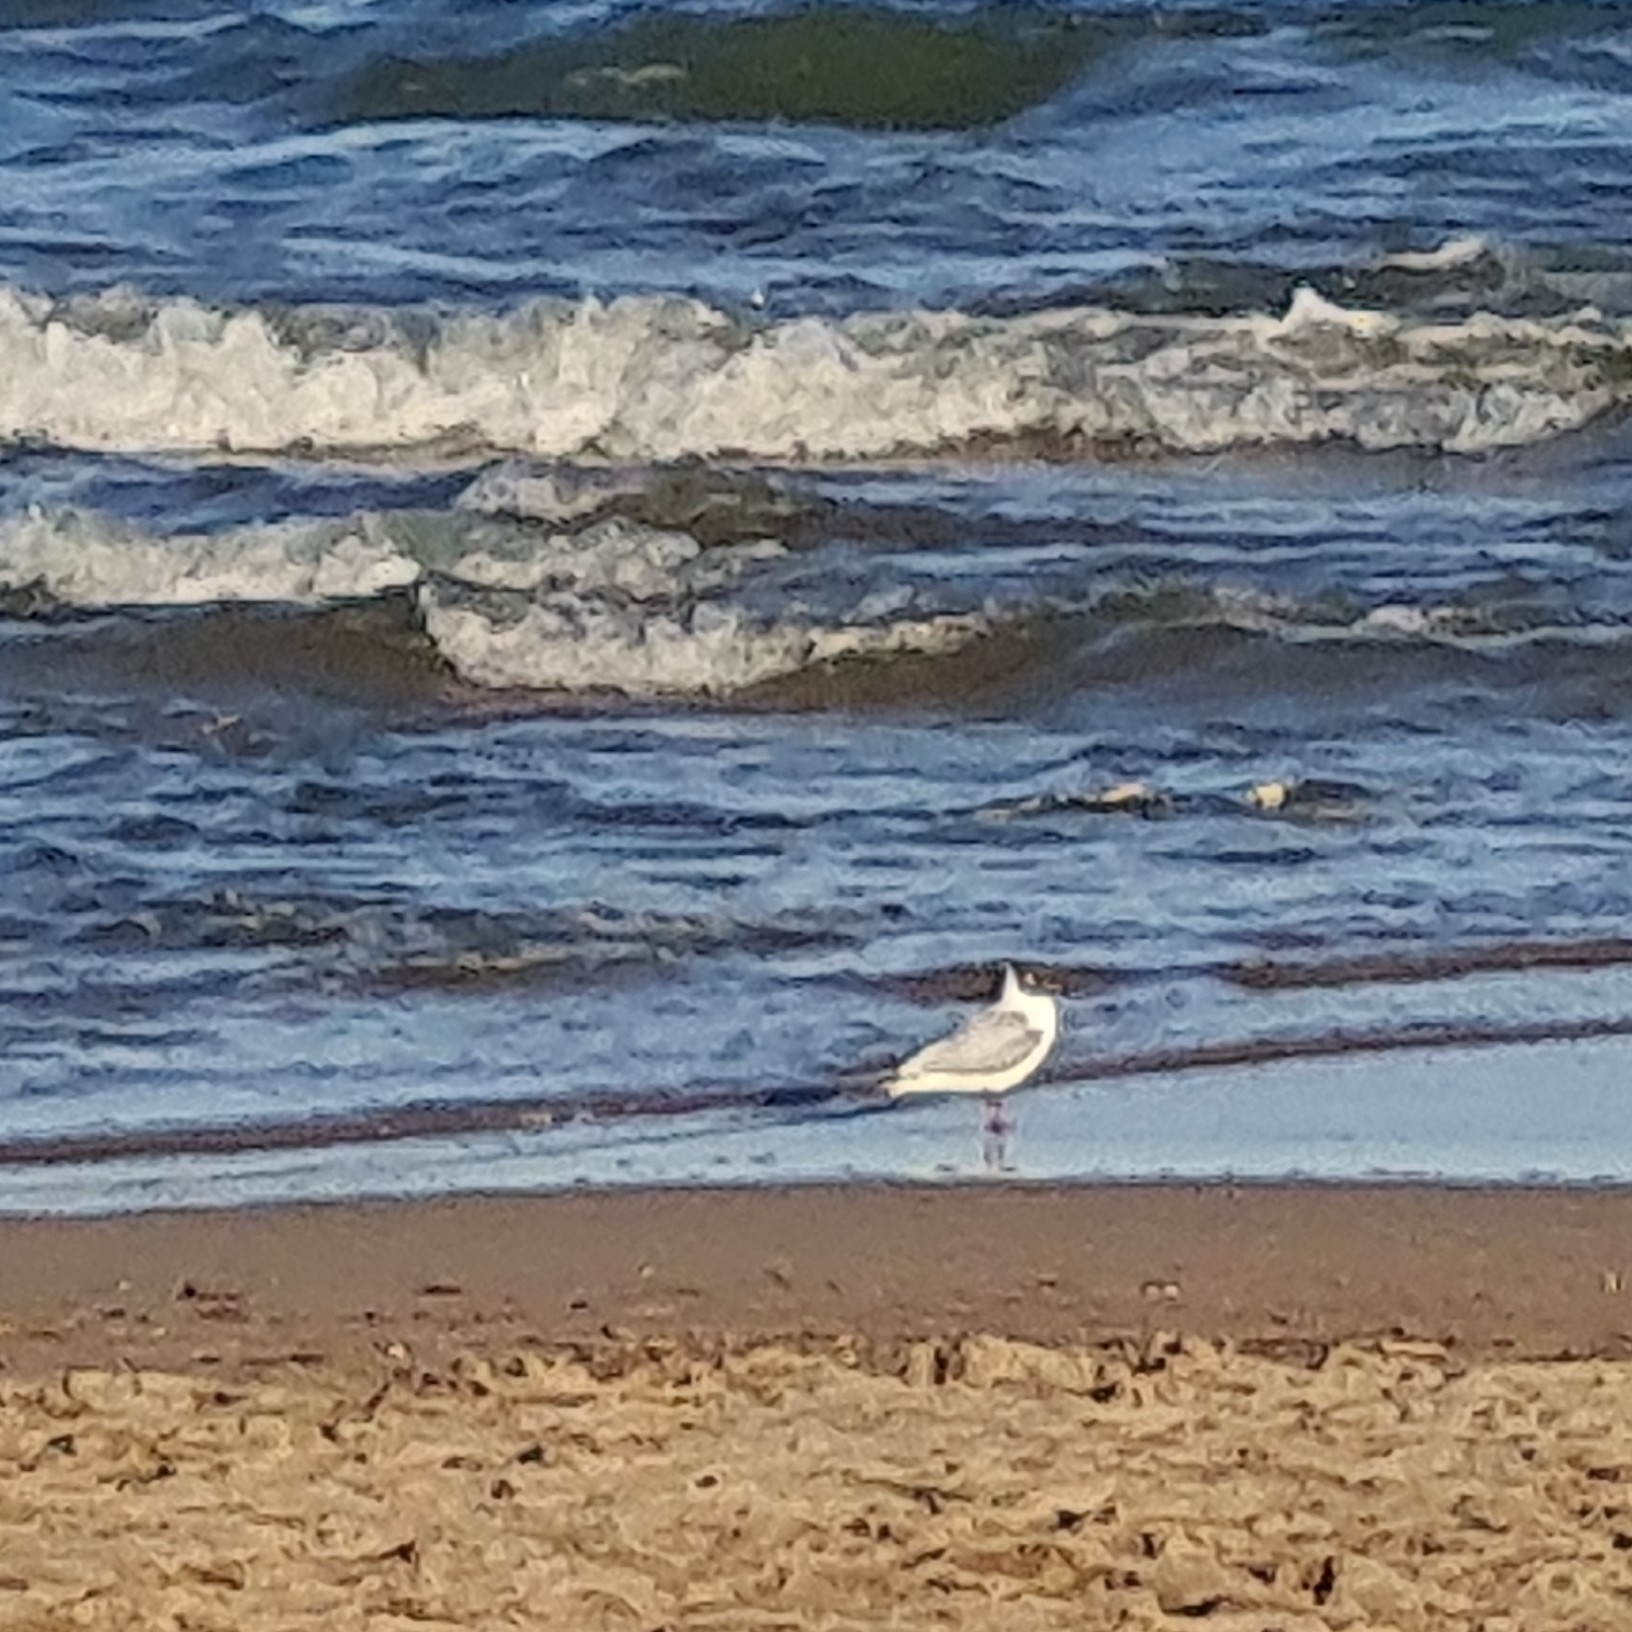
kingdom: Animalia
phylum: Chordata
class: Aves
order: Charadriiformes
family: Laridae
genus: Chroicocephalus
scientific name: Chroicocephalus ridibundus
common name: Black-headed gull
